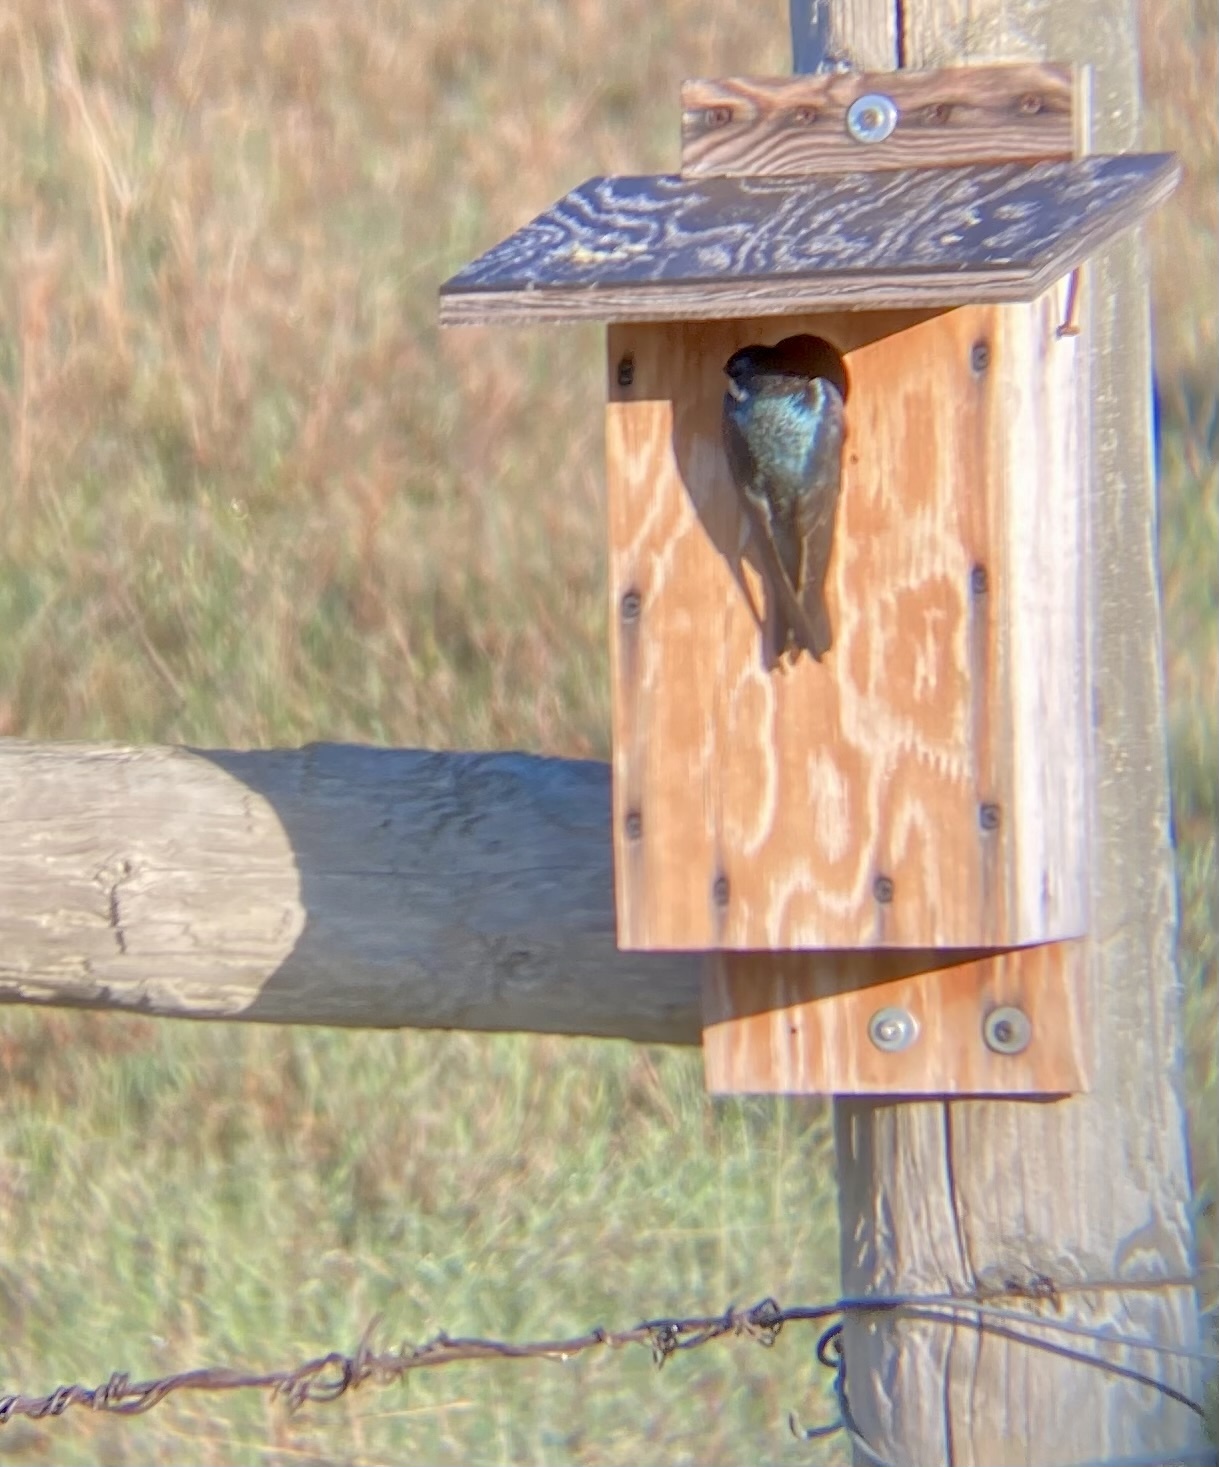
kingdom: Animalia
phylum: Chordata
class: Aves
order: Passeriformes
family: Hirundinidae
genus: Tachycineta
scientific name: Tachycineta bicolor
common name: Tree swallow
